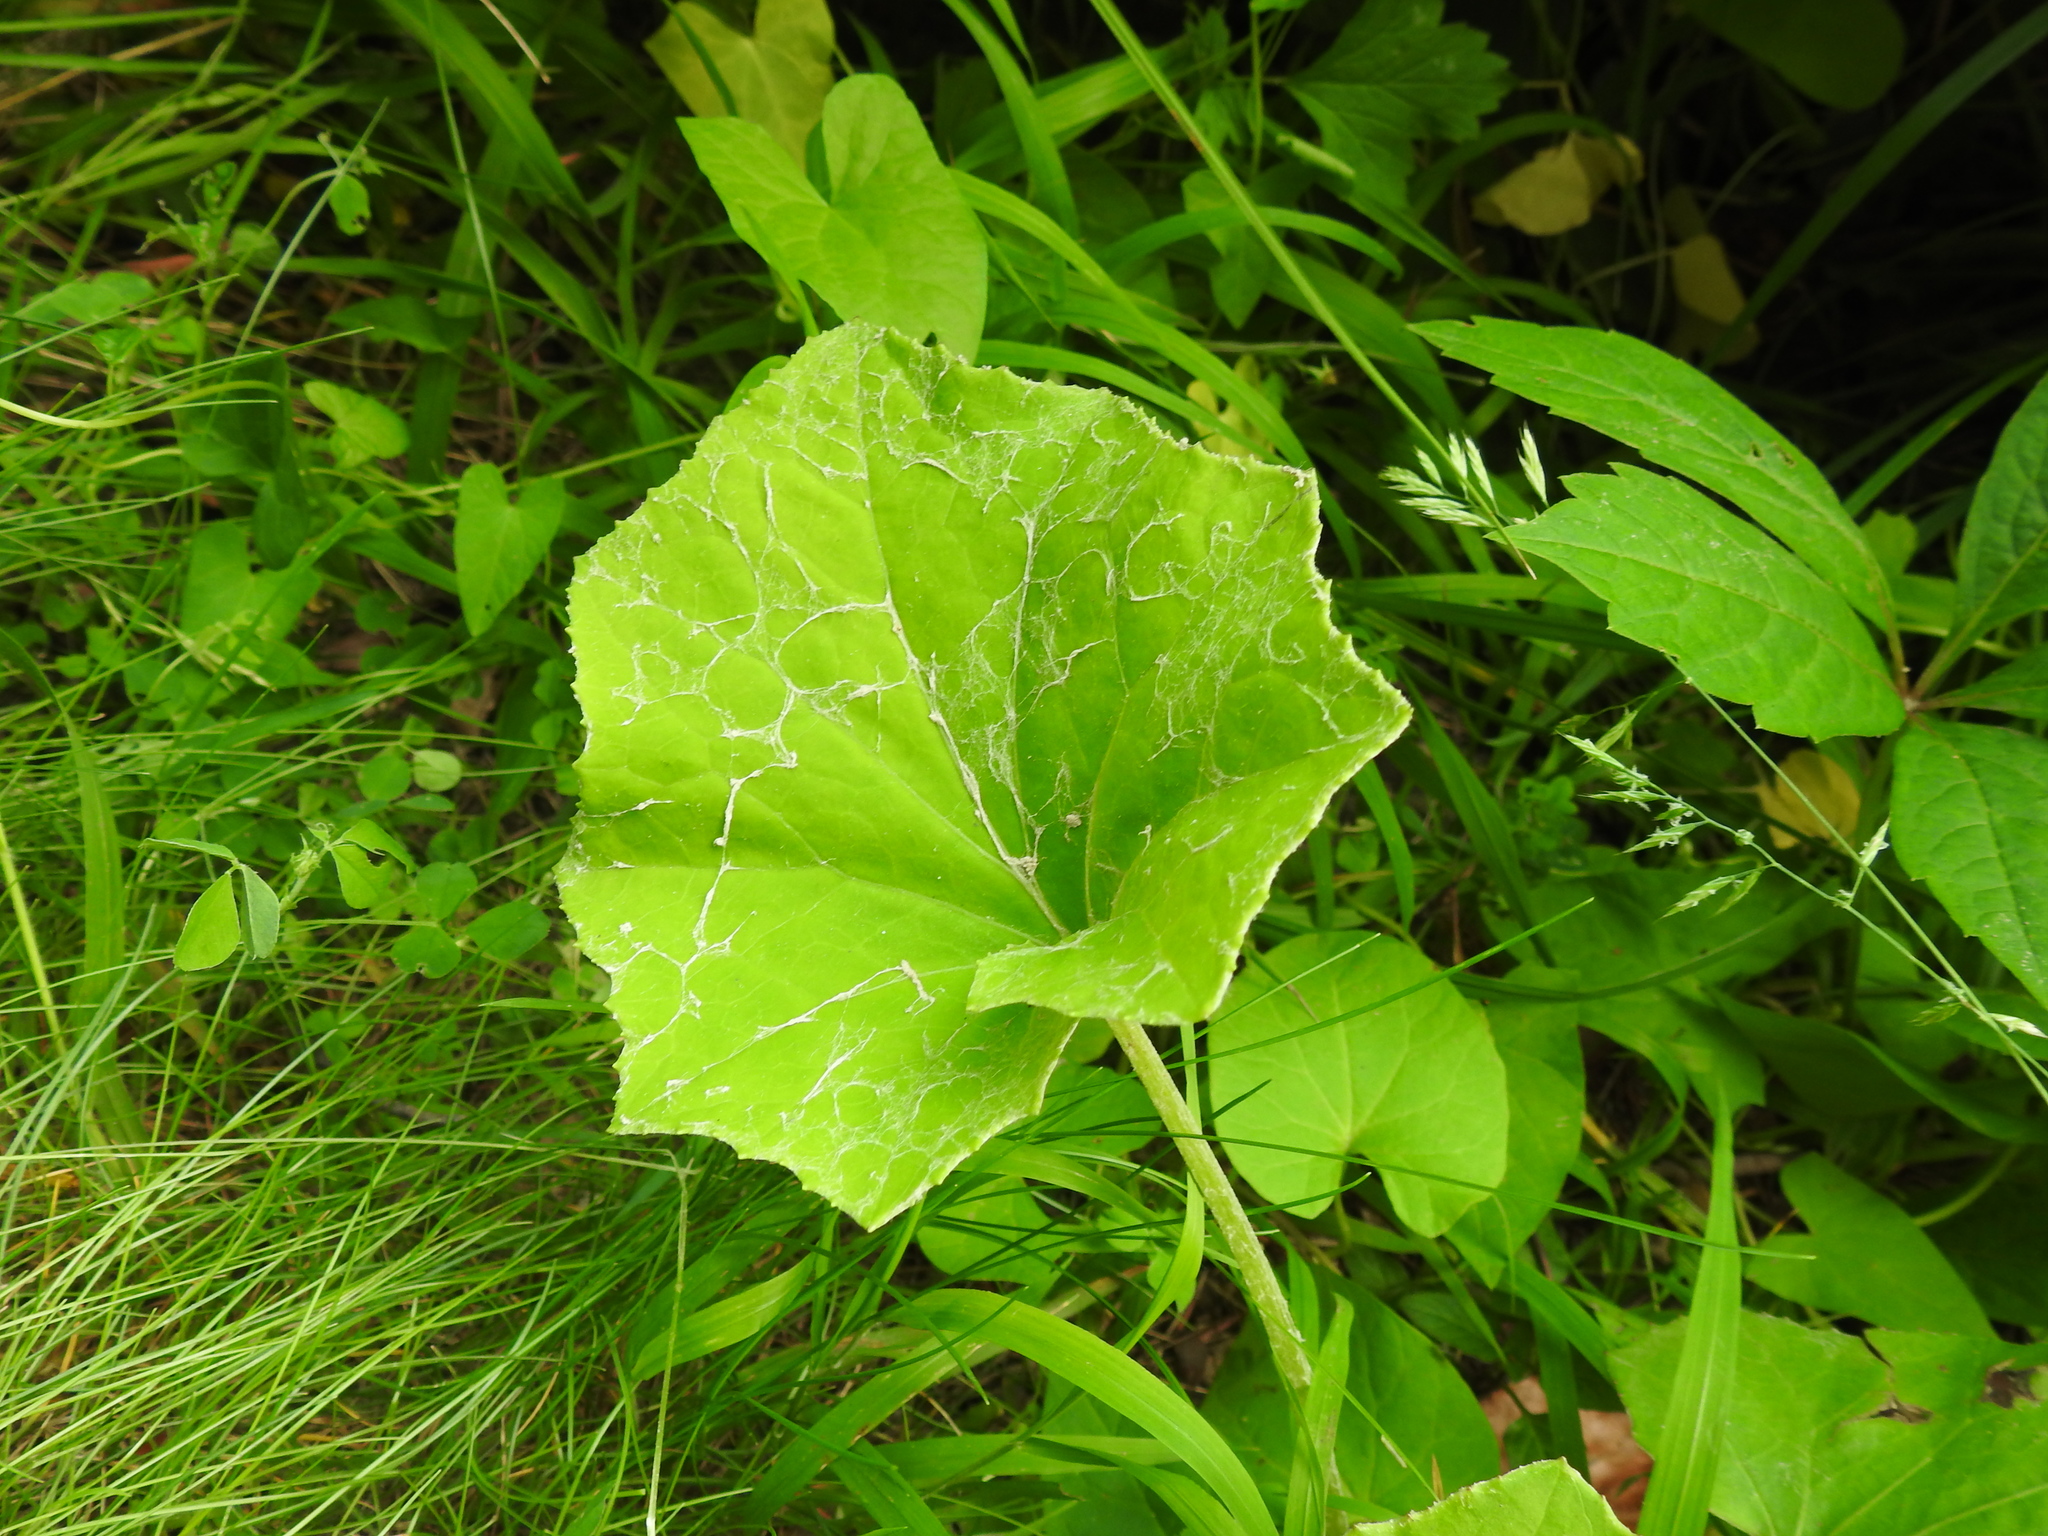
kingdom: Plantae
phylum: Tracheophyta
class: Magnoliopsida
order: Asterales
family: Asteraceae
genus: Tussilago
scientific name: Tussilago farfara
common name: Coltsfoot
